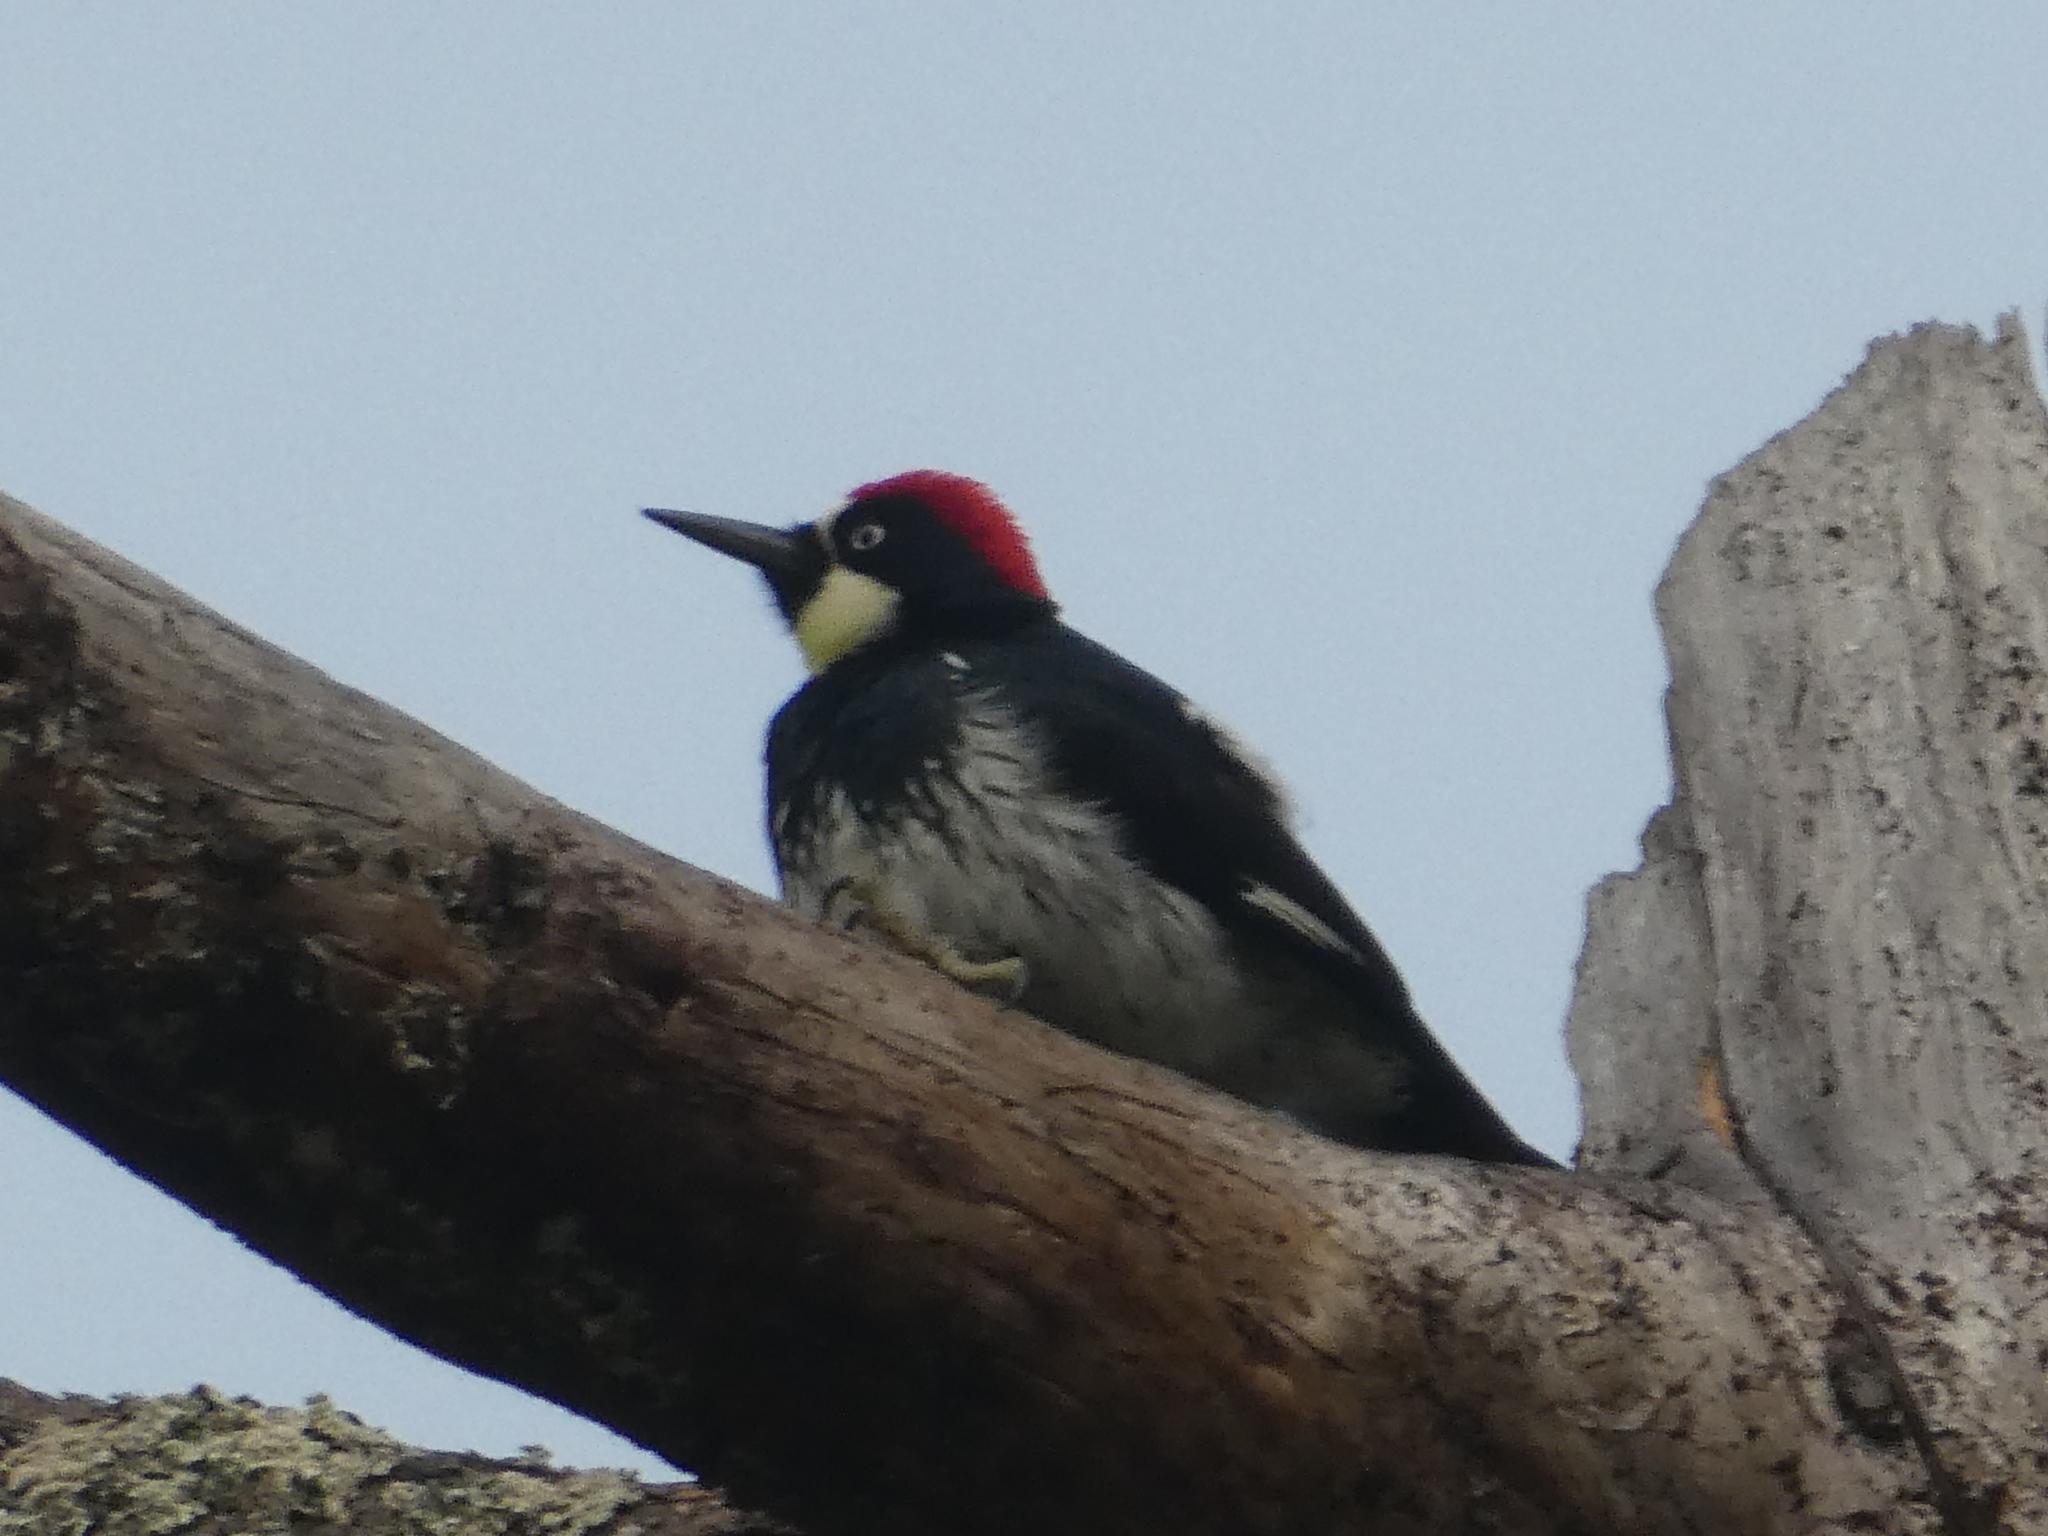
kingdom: Animalia
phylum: Chordata
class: Aves
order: Piciformes
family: Picidae
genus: Melanerpes
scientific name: Melanerpes formicivorus
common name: Acorn woodpecker
